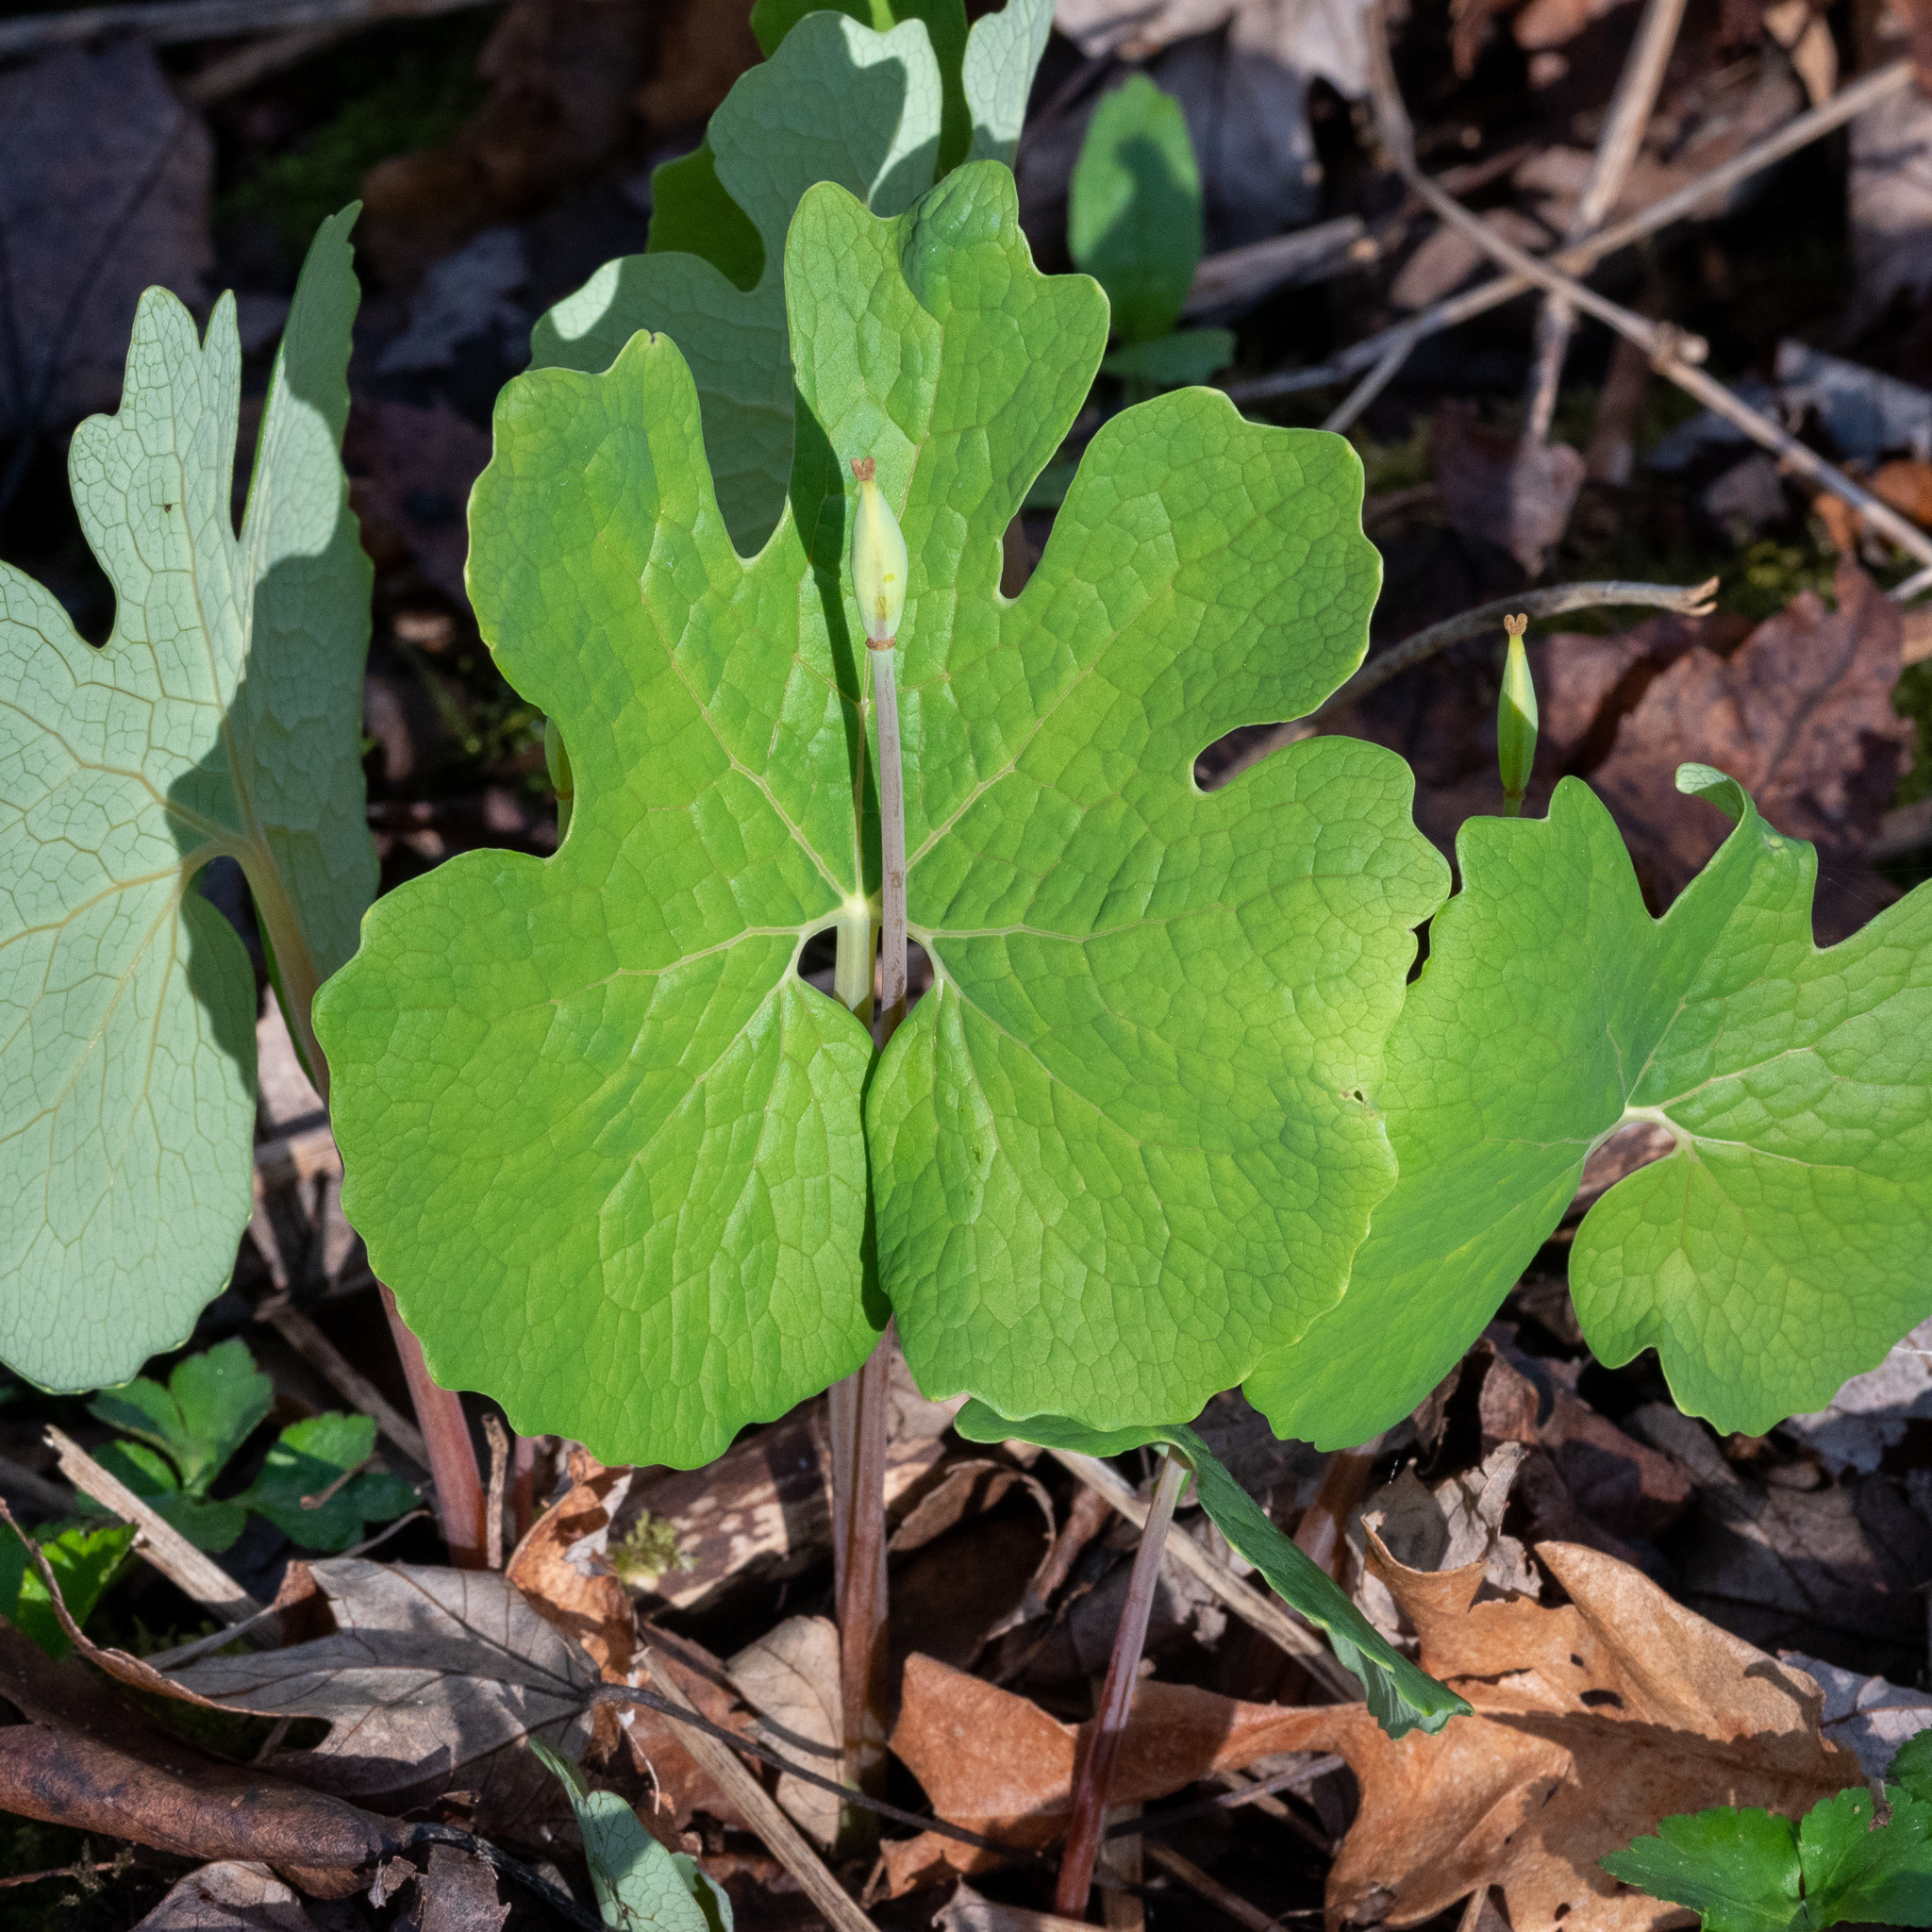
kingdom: Plantae
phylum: Tracheophyta
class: Magnoliopsida
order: Ranunculales
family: Papaveraceae
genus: Sanguinaria
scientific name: Sanguinaria canadensis
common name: Bloodroot
